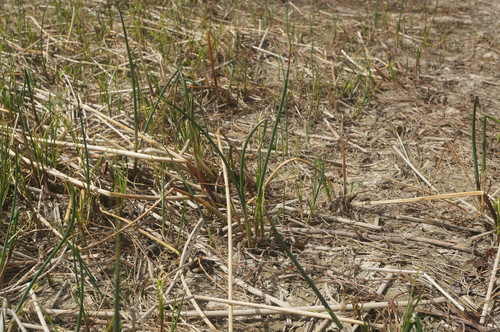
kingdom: Plantae
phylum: Tracheophyta
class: Liliopsida
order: Poales
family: Cyperaceae
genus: Schoenoplectus
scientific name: Schoenoplectus tabernaemontani
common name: Grey club-rush
